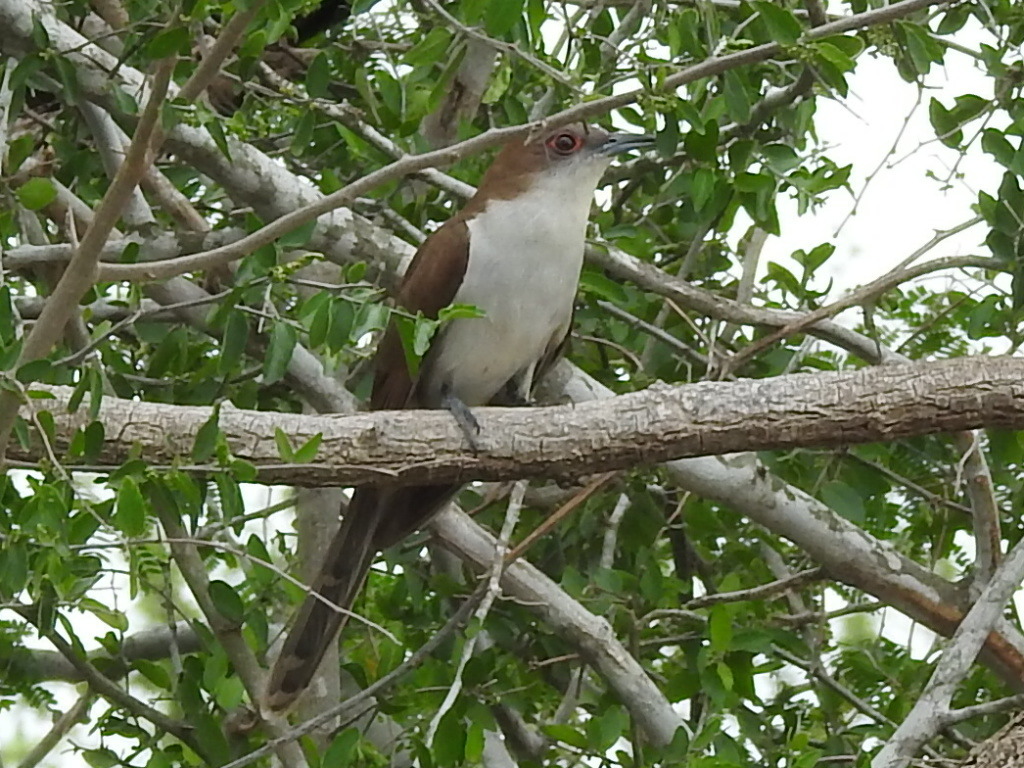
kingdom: Animalia
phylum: Chordata
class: Aves
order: Cuculiformes
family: Cuculidae
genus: Coccyzus
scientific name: Coccyzus erythropthalmus
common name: Black-billed cuckoo
